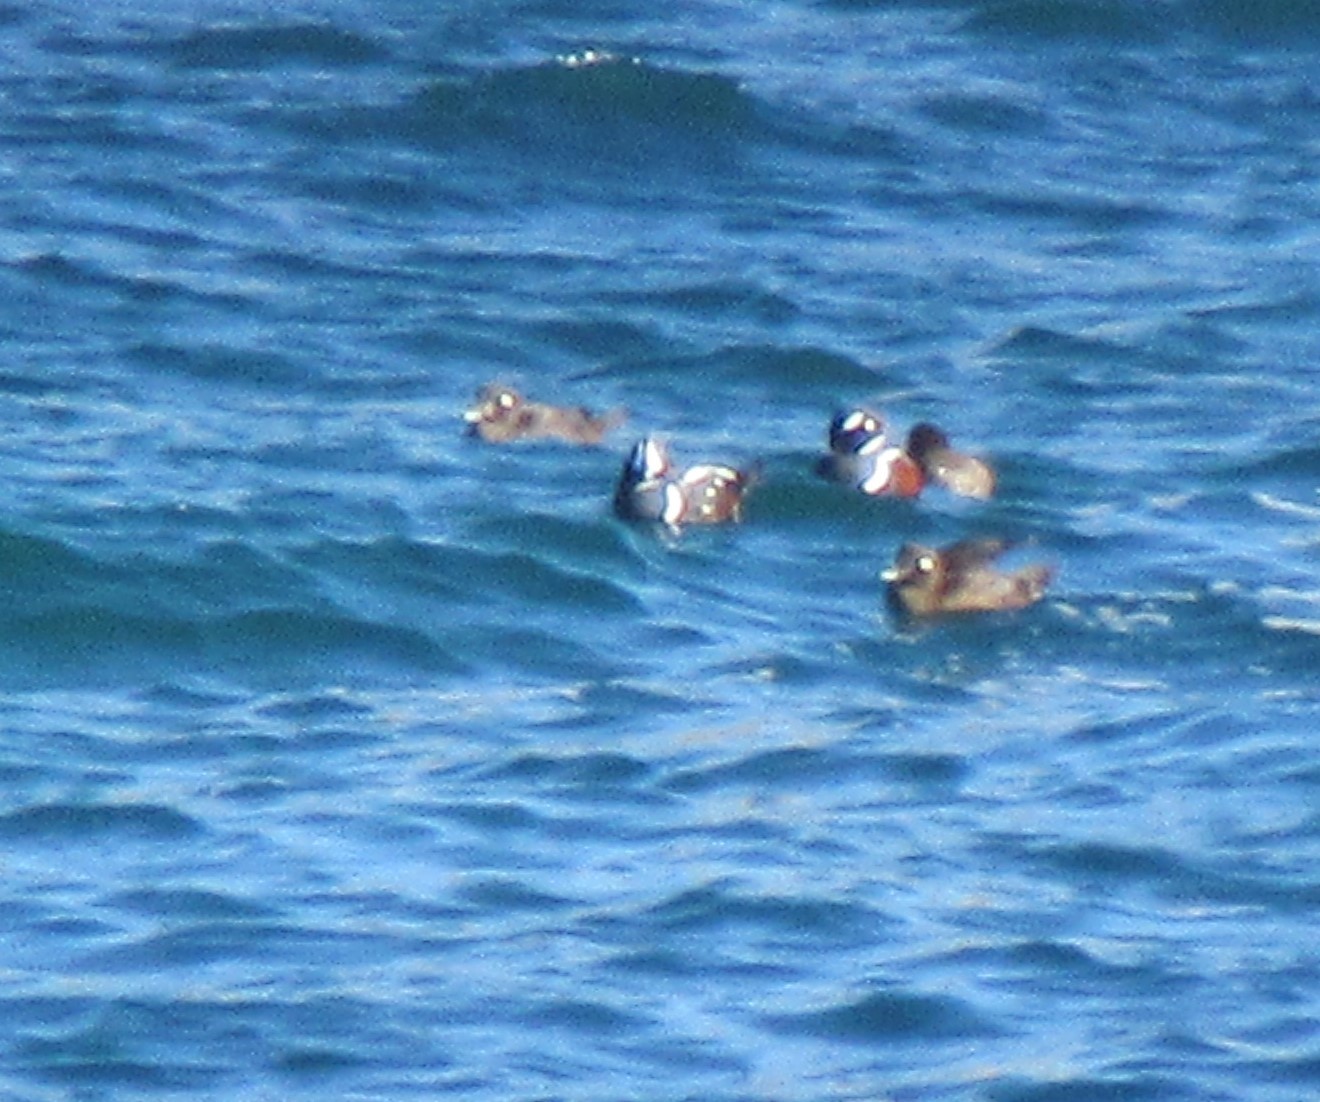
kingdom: Animalia
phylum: Chordata
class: Aves
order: Anseriformes
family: Anatidae
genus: Histrionicus
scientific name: Histrionicus histrionicus
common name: Harlequin duck
